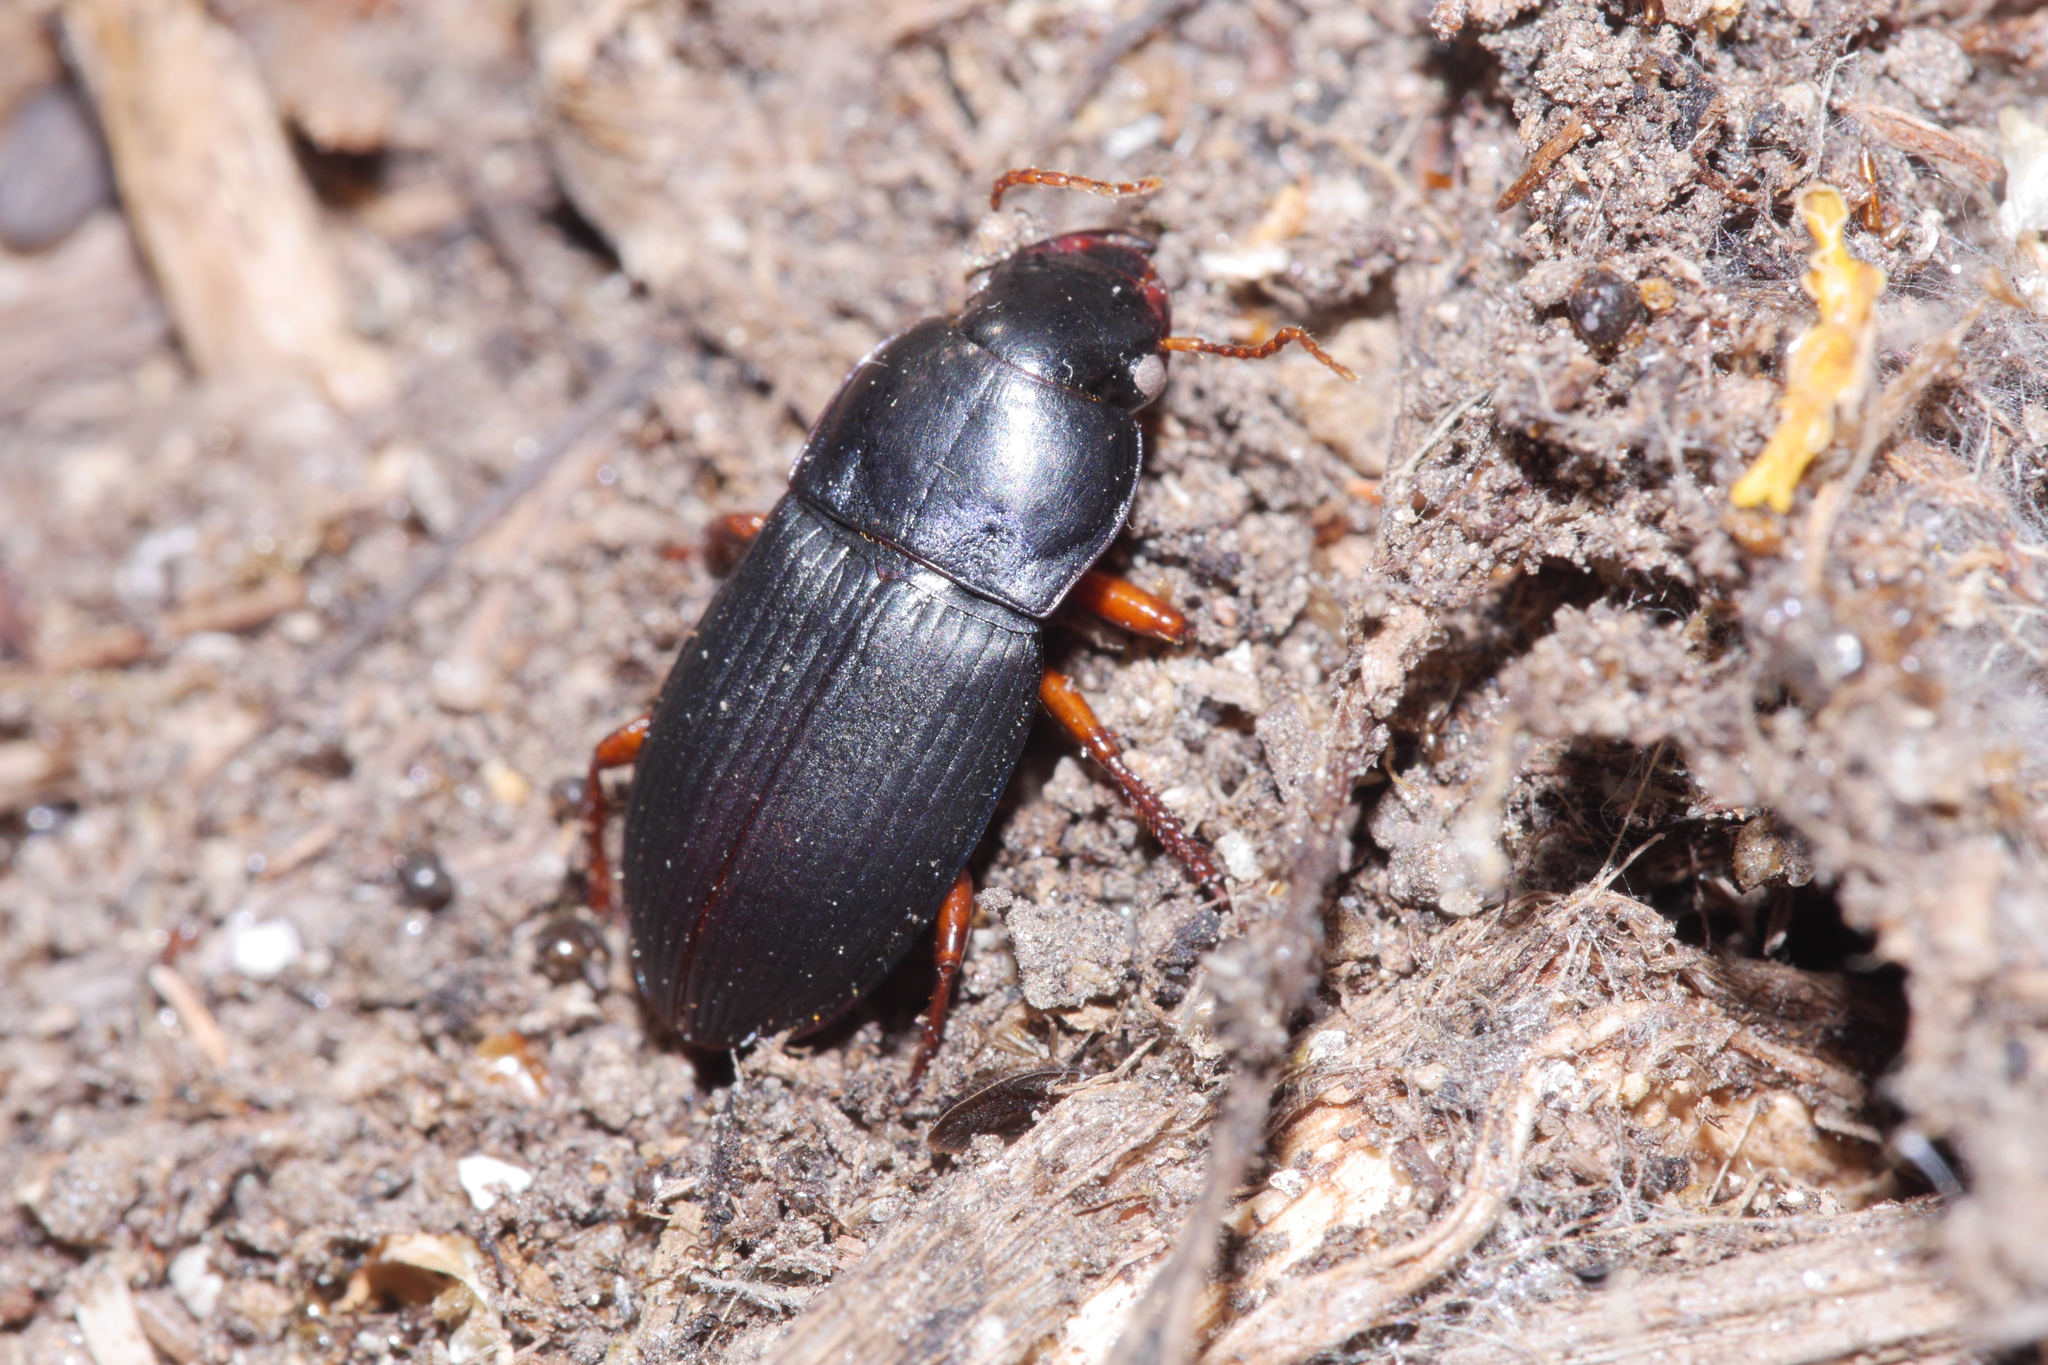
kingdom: Animalia
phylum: Arthropoda
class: Insecta
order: Coleoptera
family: Carabidae
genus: Harpalus
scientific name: Harpalus rubripes
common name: Red-legged harp ground beetle
